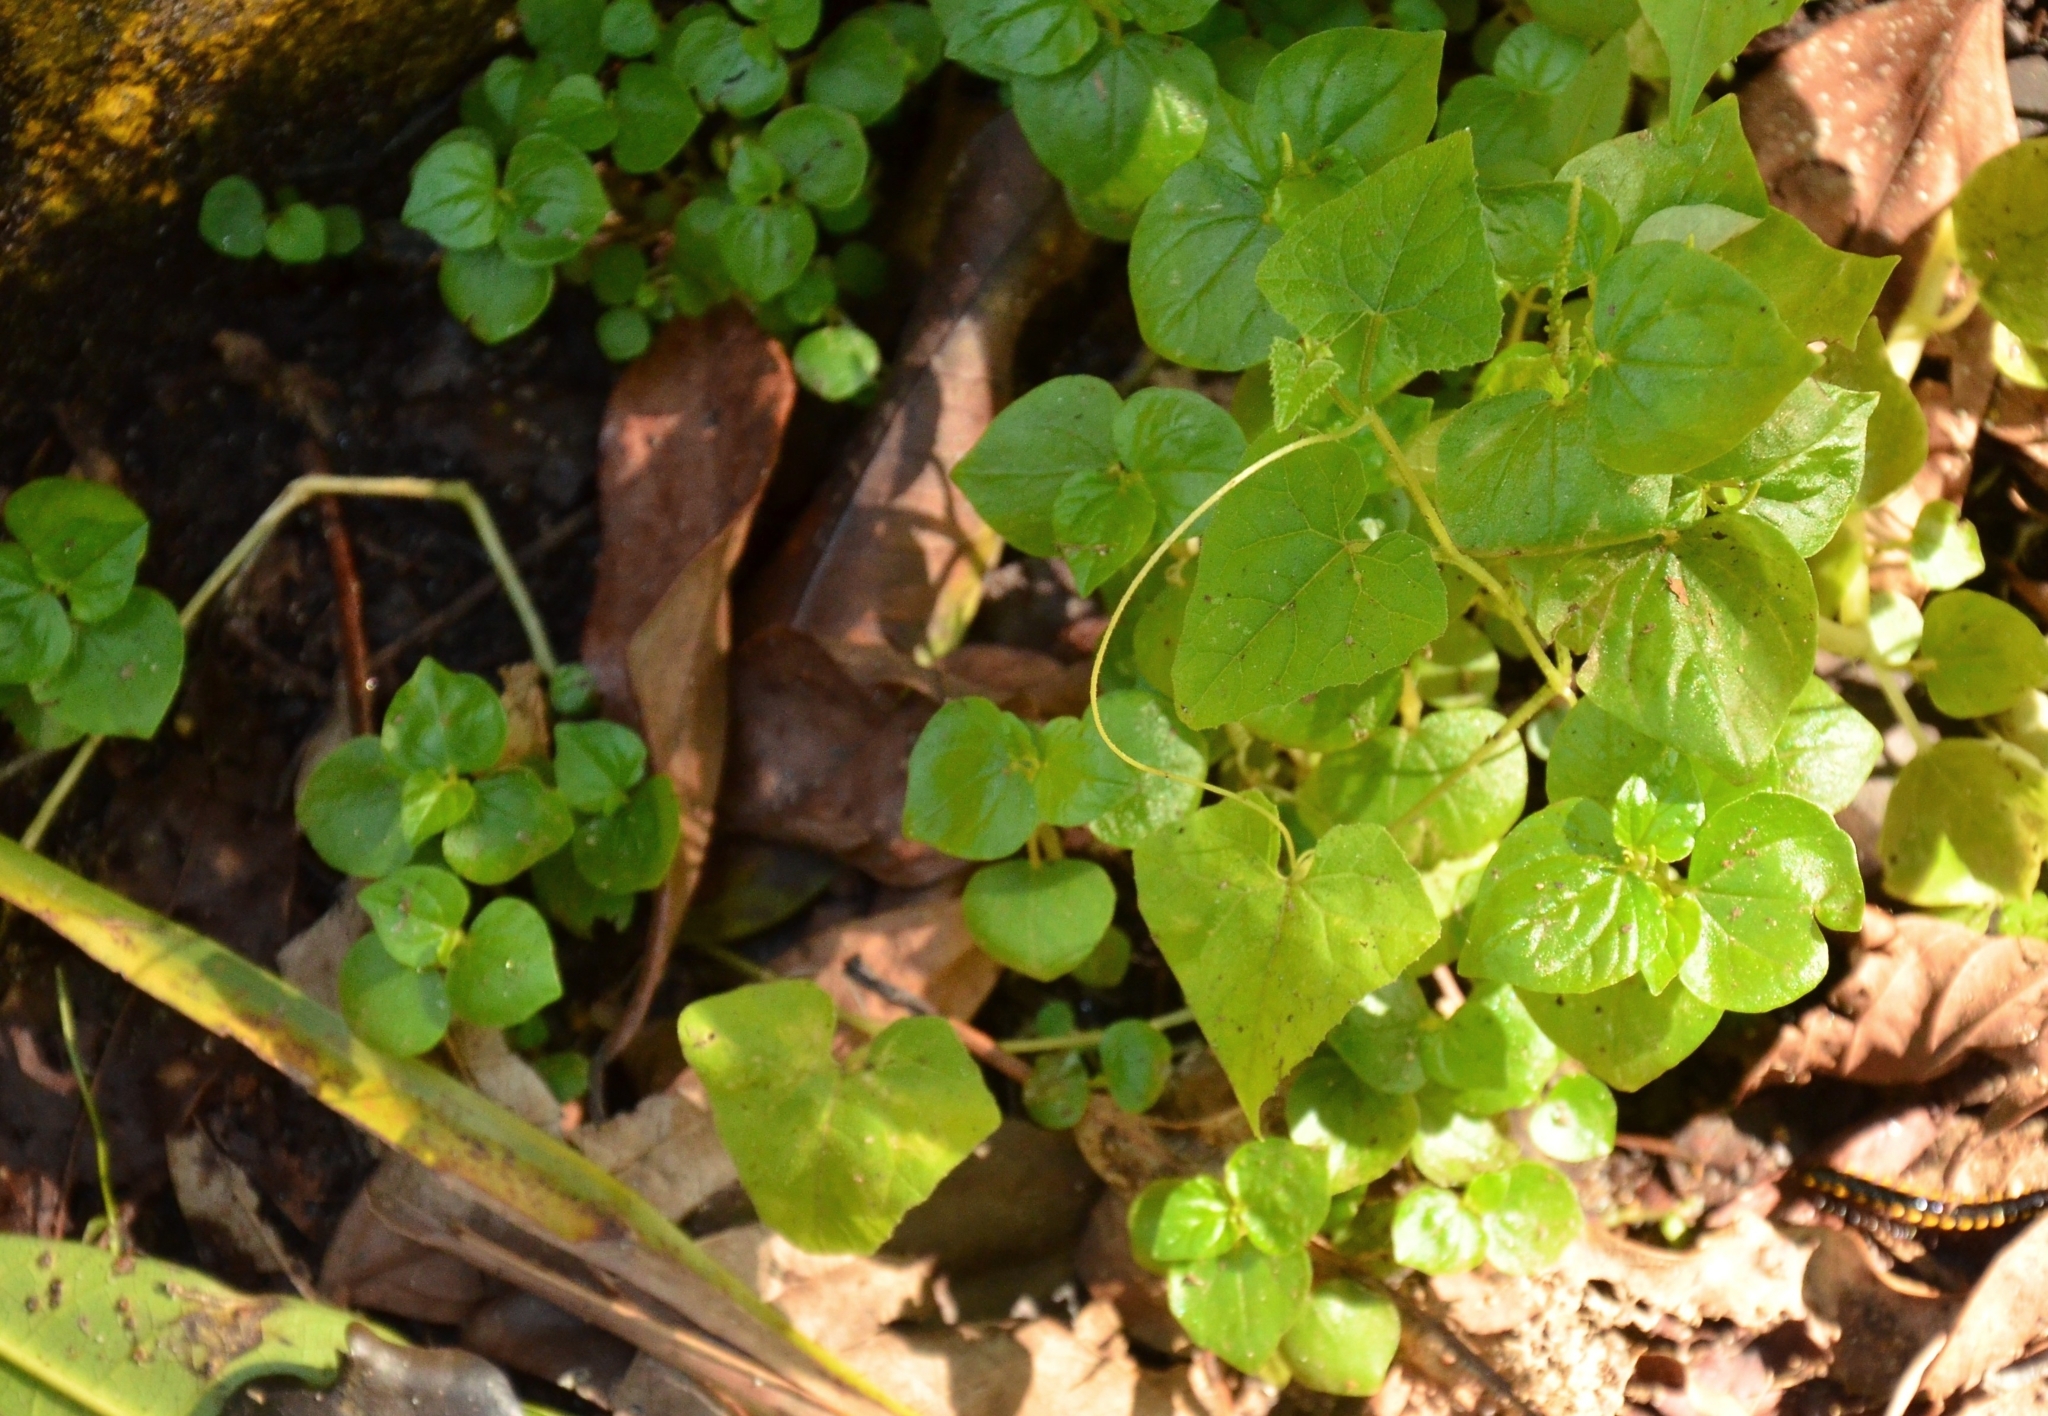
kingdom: Plantae
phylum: Tracheophyta
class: Magnoliopsida
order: Piperales
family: Piperaceae
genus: Peperomia
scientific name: Peperomia pellucida
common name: Man to man
